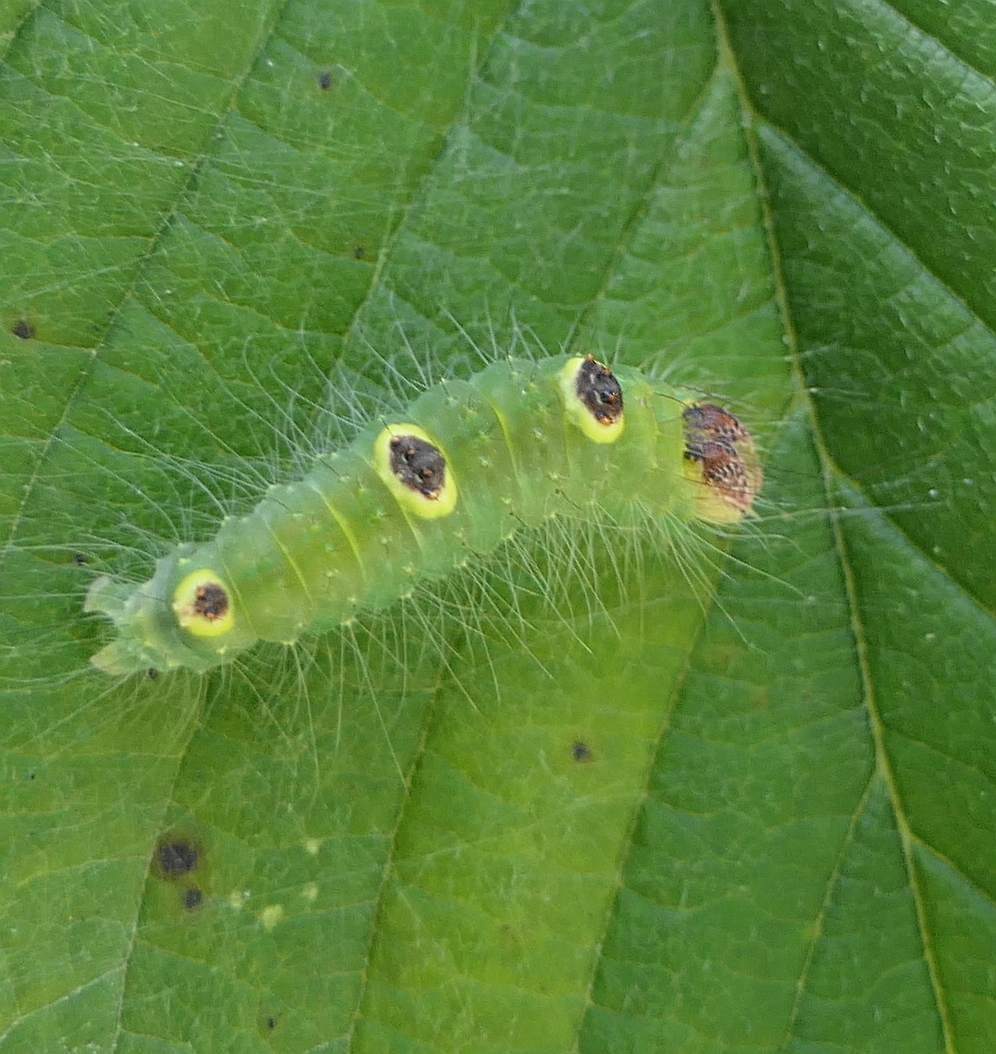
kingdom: Animalia
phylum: Arthropoda
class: Insecta
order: Lepidoptera
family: Noctuidae
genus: Acronicta
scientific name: Acronicta morula
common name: Ochre dagger
